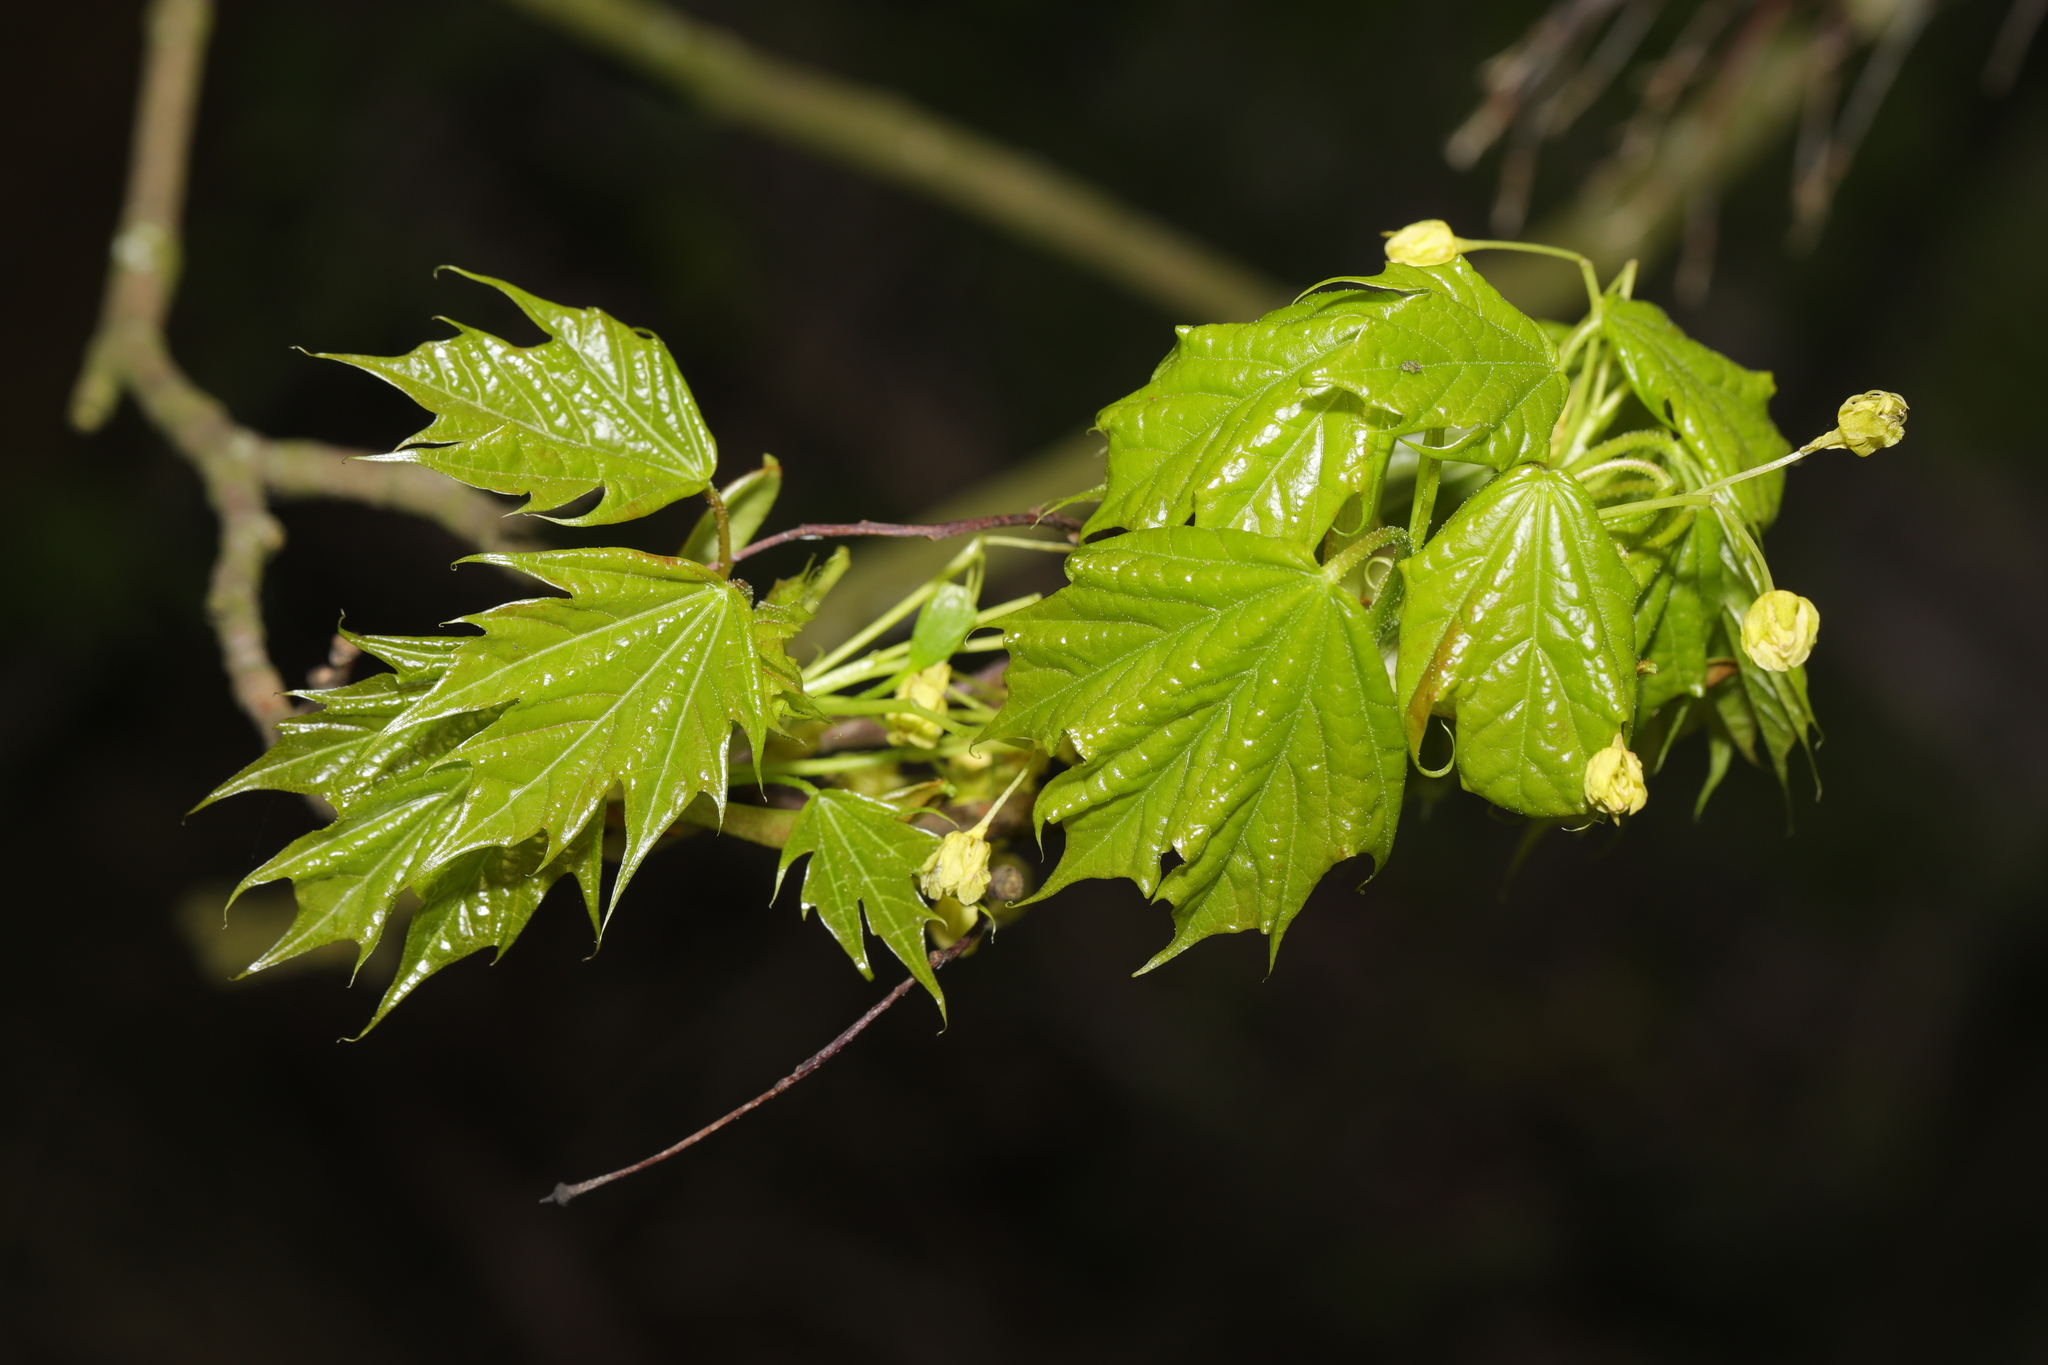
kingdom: Plantae
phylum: Tracheophyta
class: Magnoliopsida
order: Sapindales
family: Sapindaceae
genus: Acer
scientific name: Acer platanoides
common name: Norway maple
